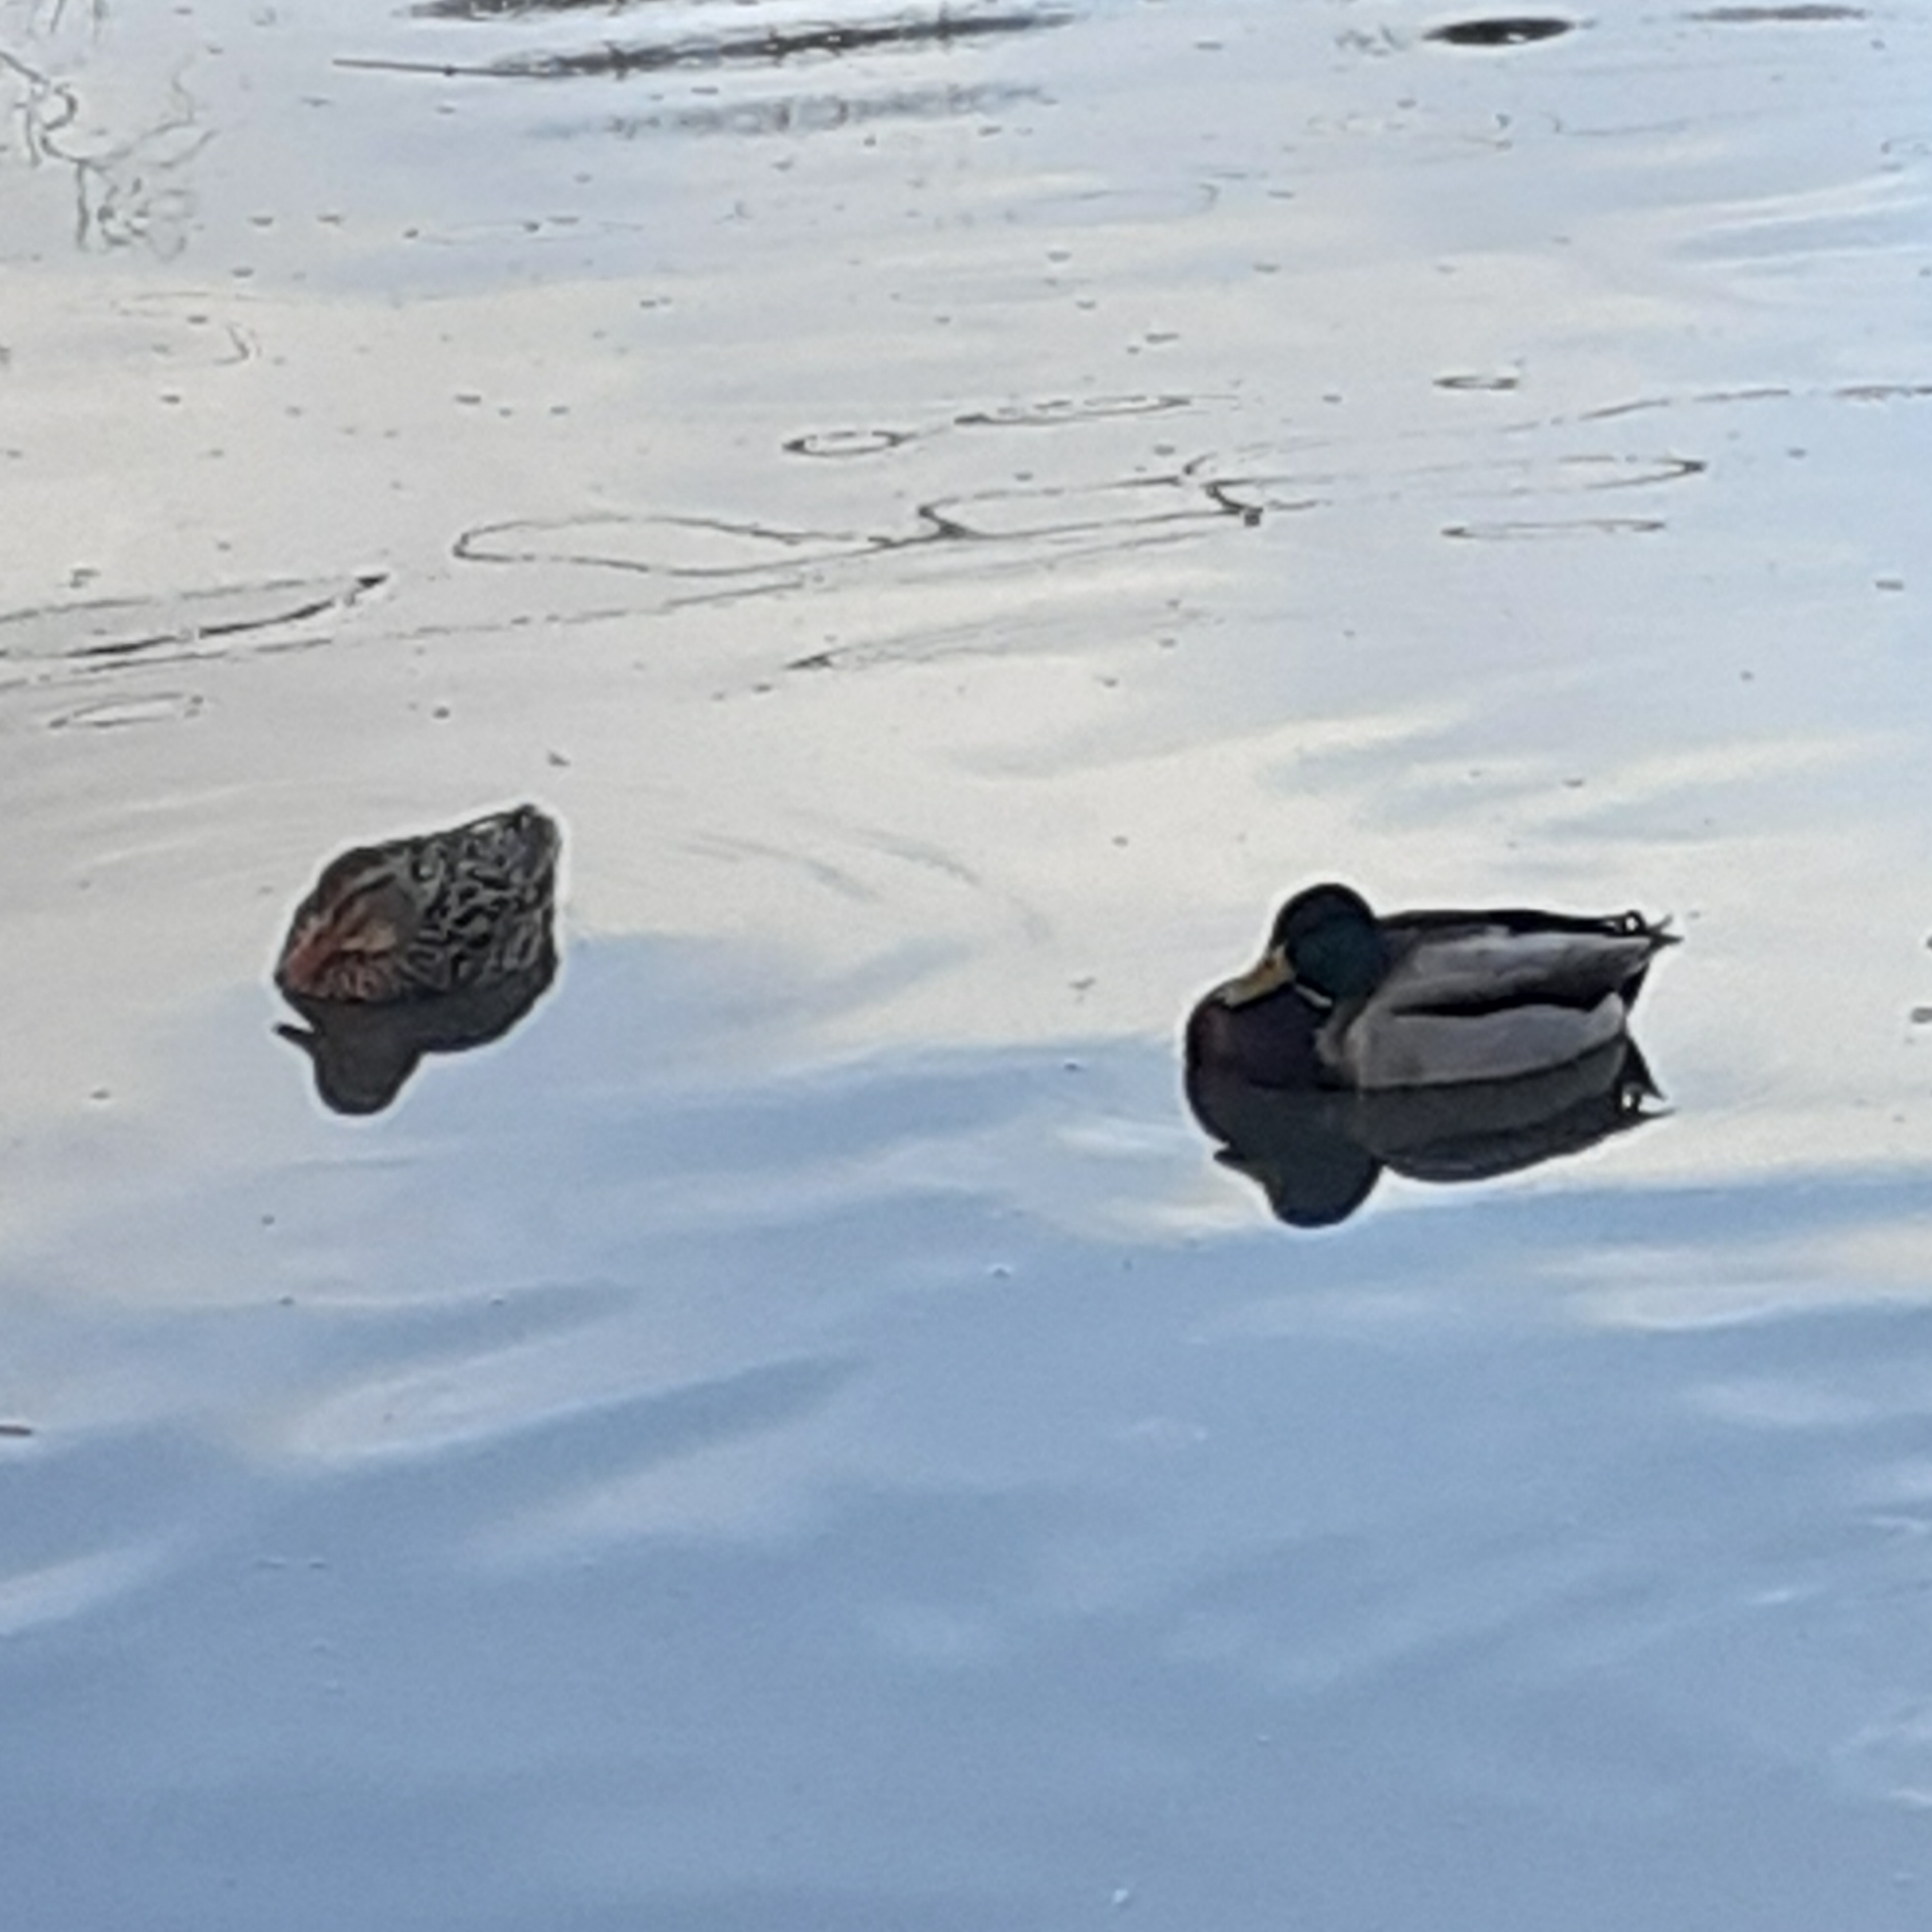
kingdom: Animalia
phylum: Chordata
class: Aves
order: Anseriformes
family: Anatidae
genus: Anas
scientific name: Anas platyrhynchos
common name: Mallard
